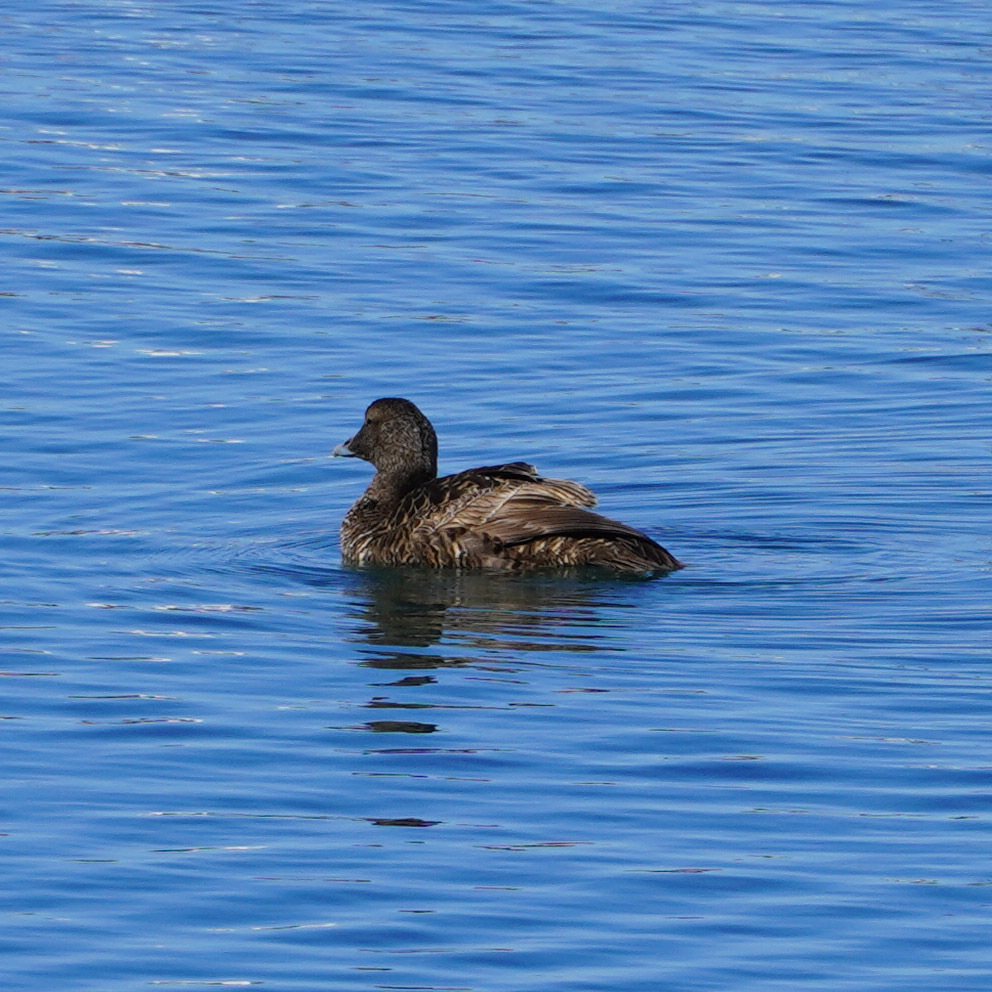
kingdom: Animalia
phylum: Chordata
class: Aves
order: Anseriformes
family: Anatidae
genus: Somateria
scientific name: Somateria mollissima
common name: Common eider
